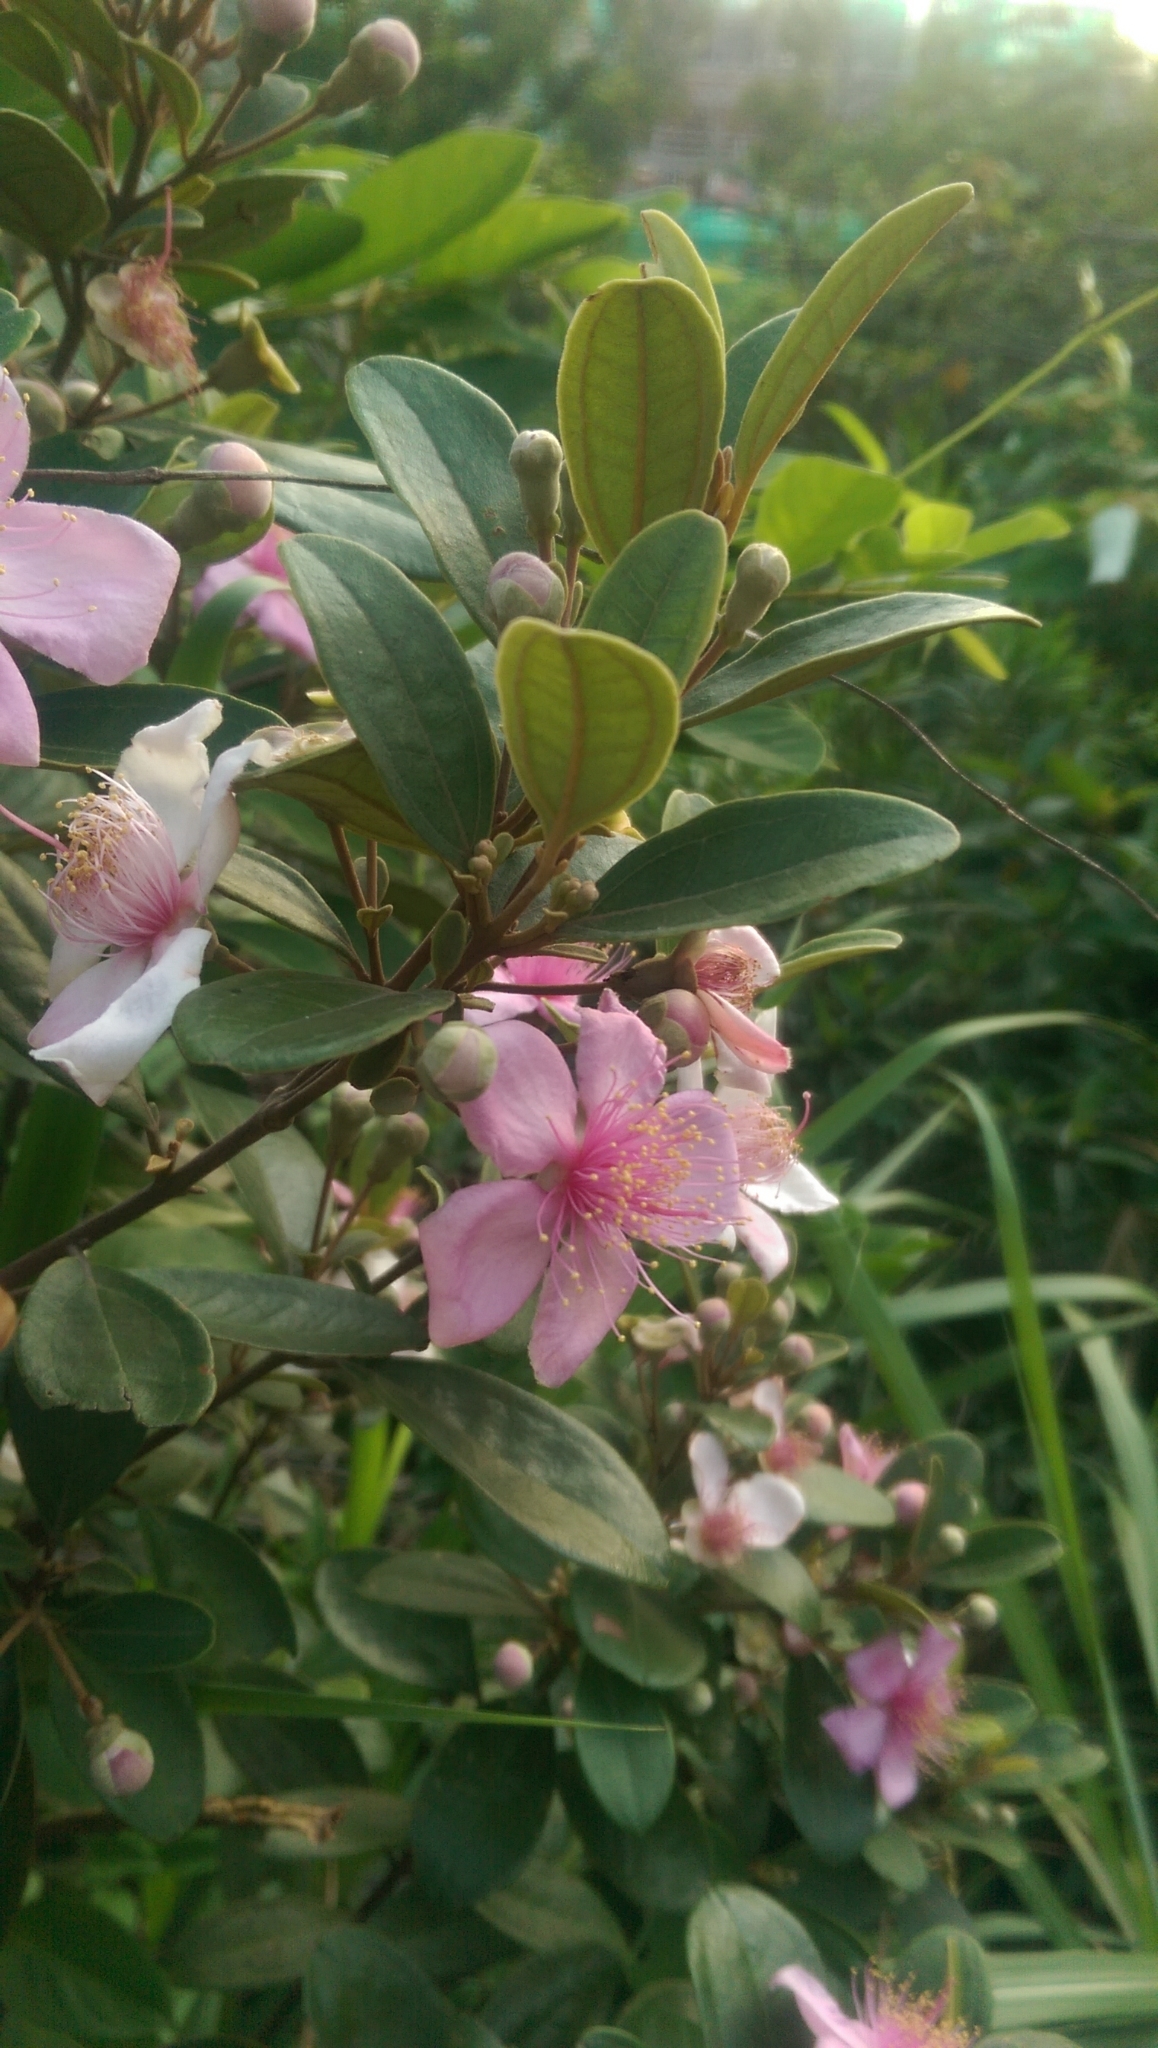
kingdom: Plantae
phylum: Tracheophyta
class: Magnoliopsida
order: Myrtales
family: Myrtaceae
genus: Rhodomyrtus
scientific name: Rhodomyrtus tomentosa
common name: Rose myrtle
